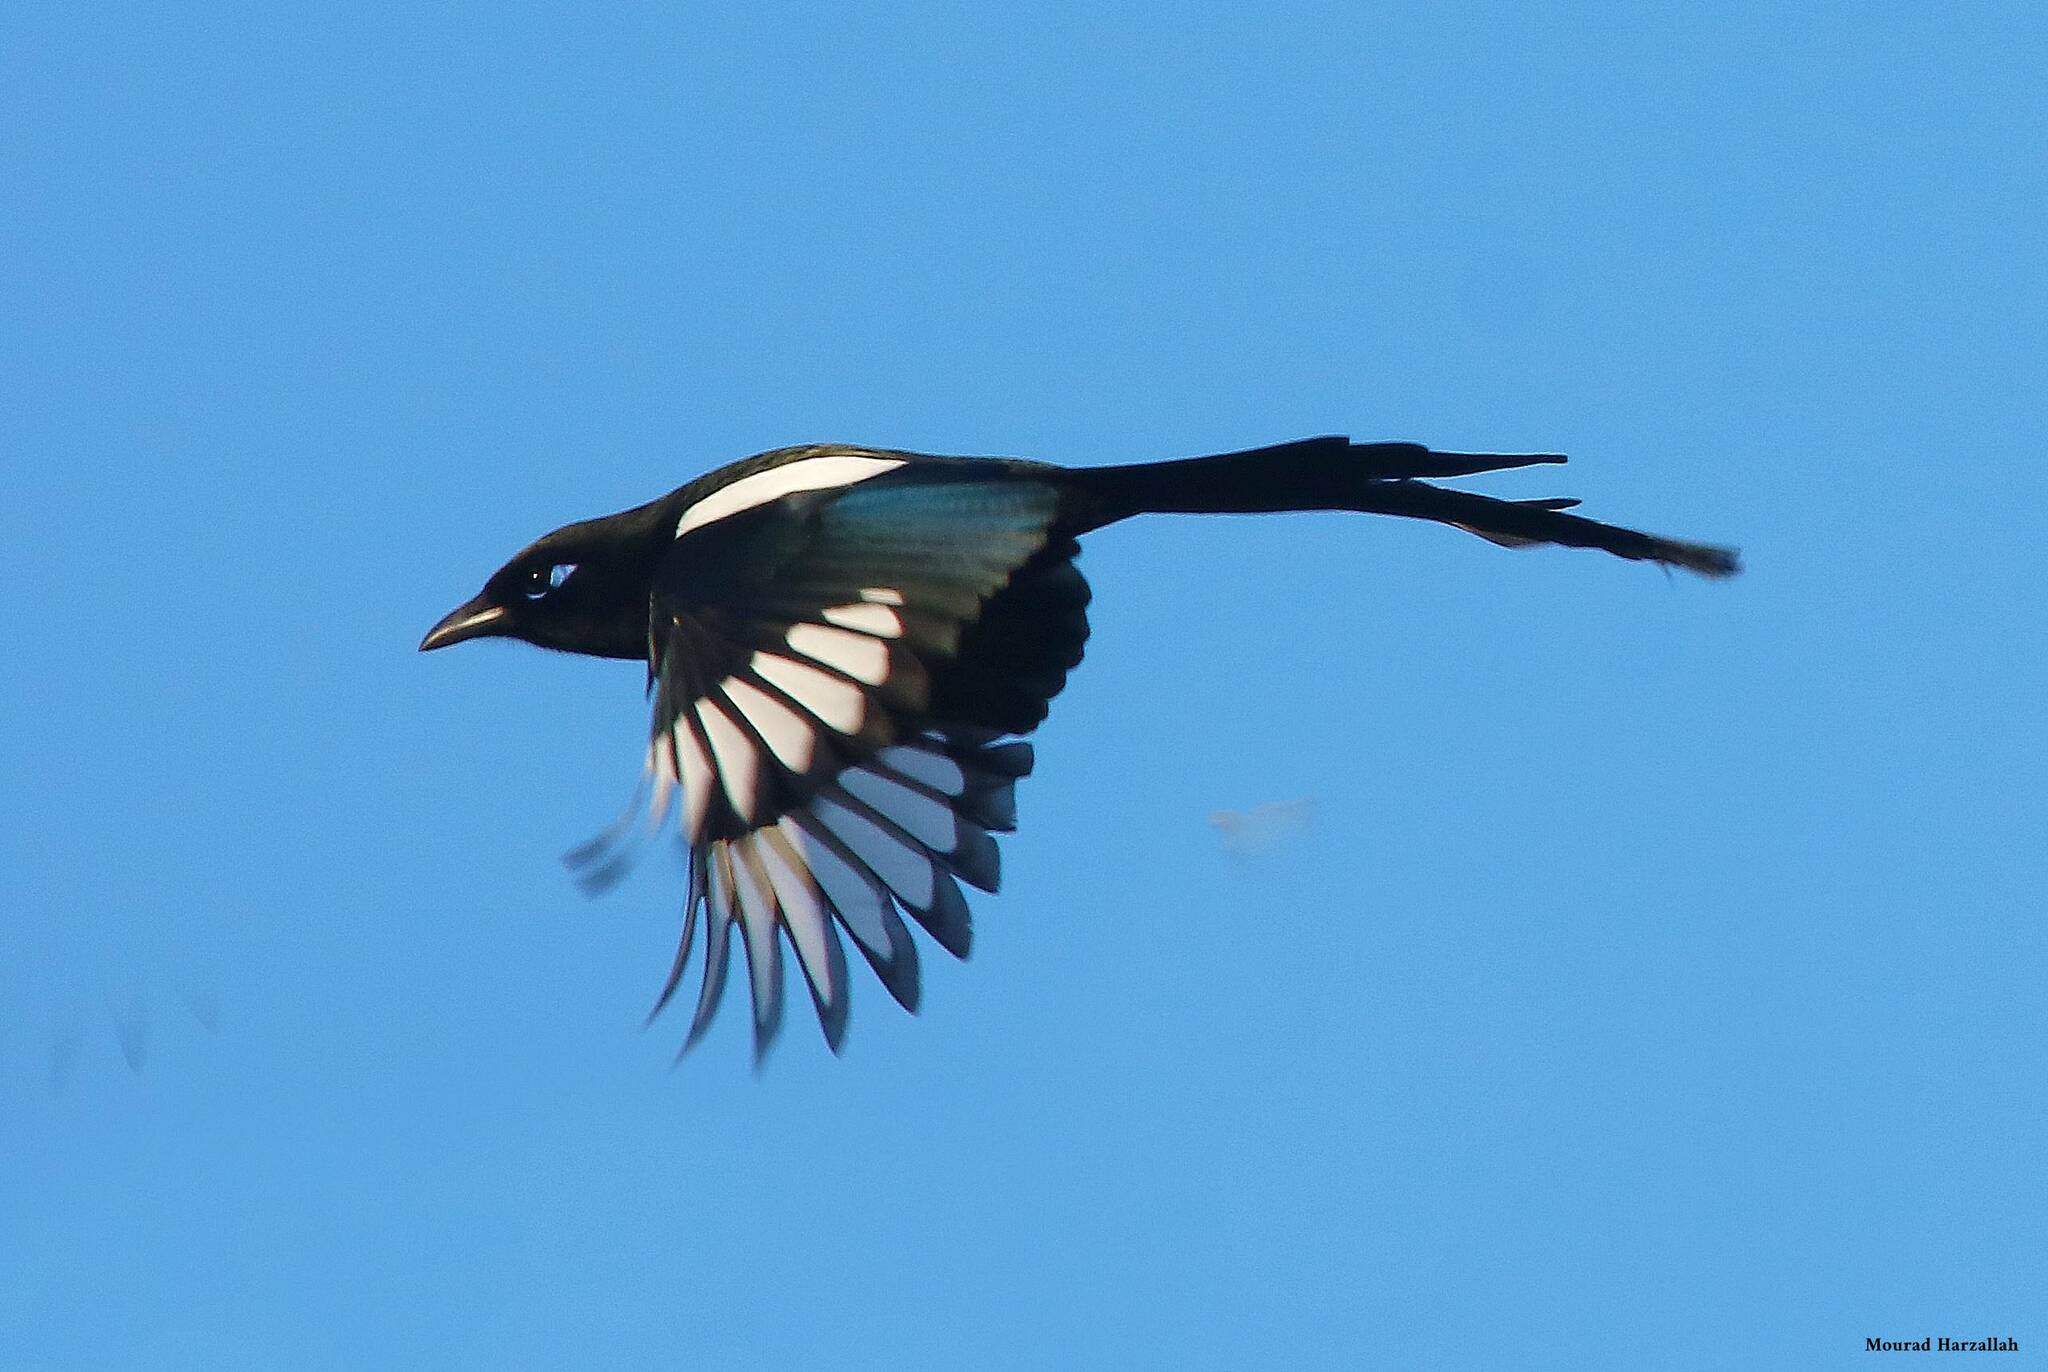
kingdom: Animalia
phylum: Chordata
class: Aves
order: Passeriformes
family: Corvidae
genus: Pica
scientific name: Pica mauritanica
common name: Maghreb magpie
